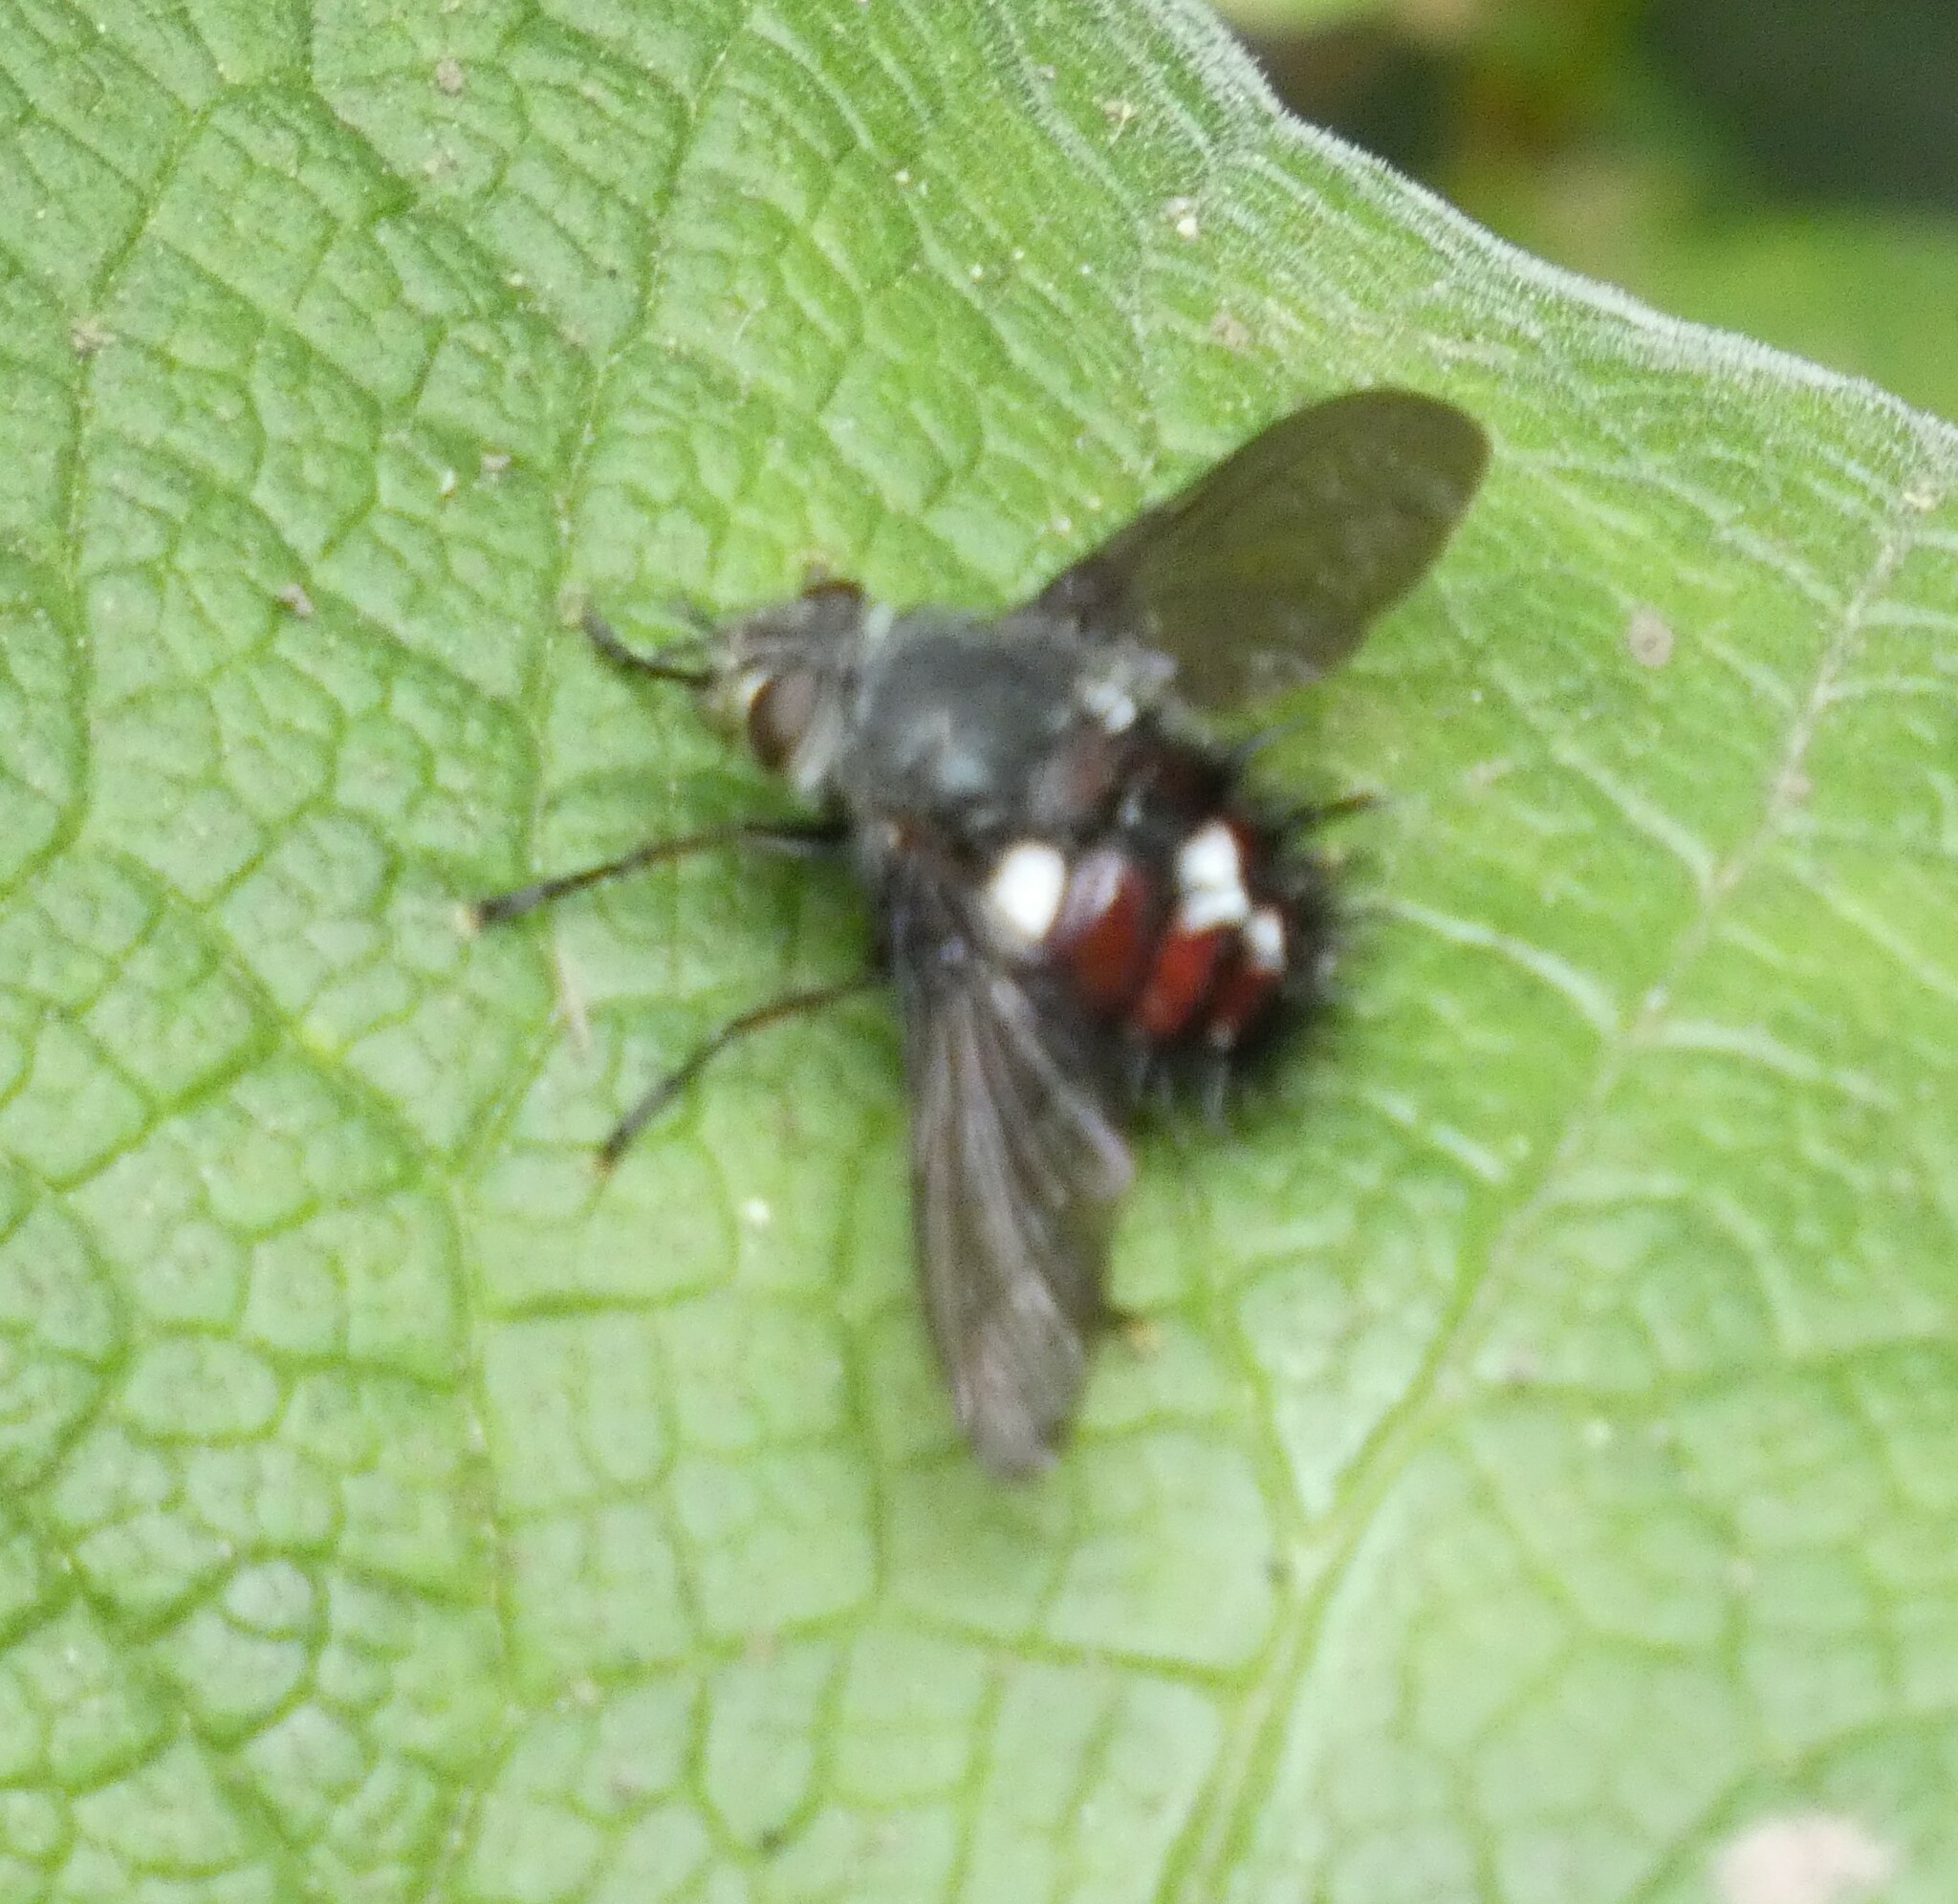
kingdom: Animalia
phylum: Arthropoda
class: Insecta
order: Diptera
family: Tachinidae
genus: Cryptopalpus
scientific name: Cryptopalpus ornatus
